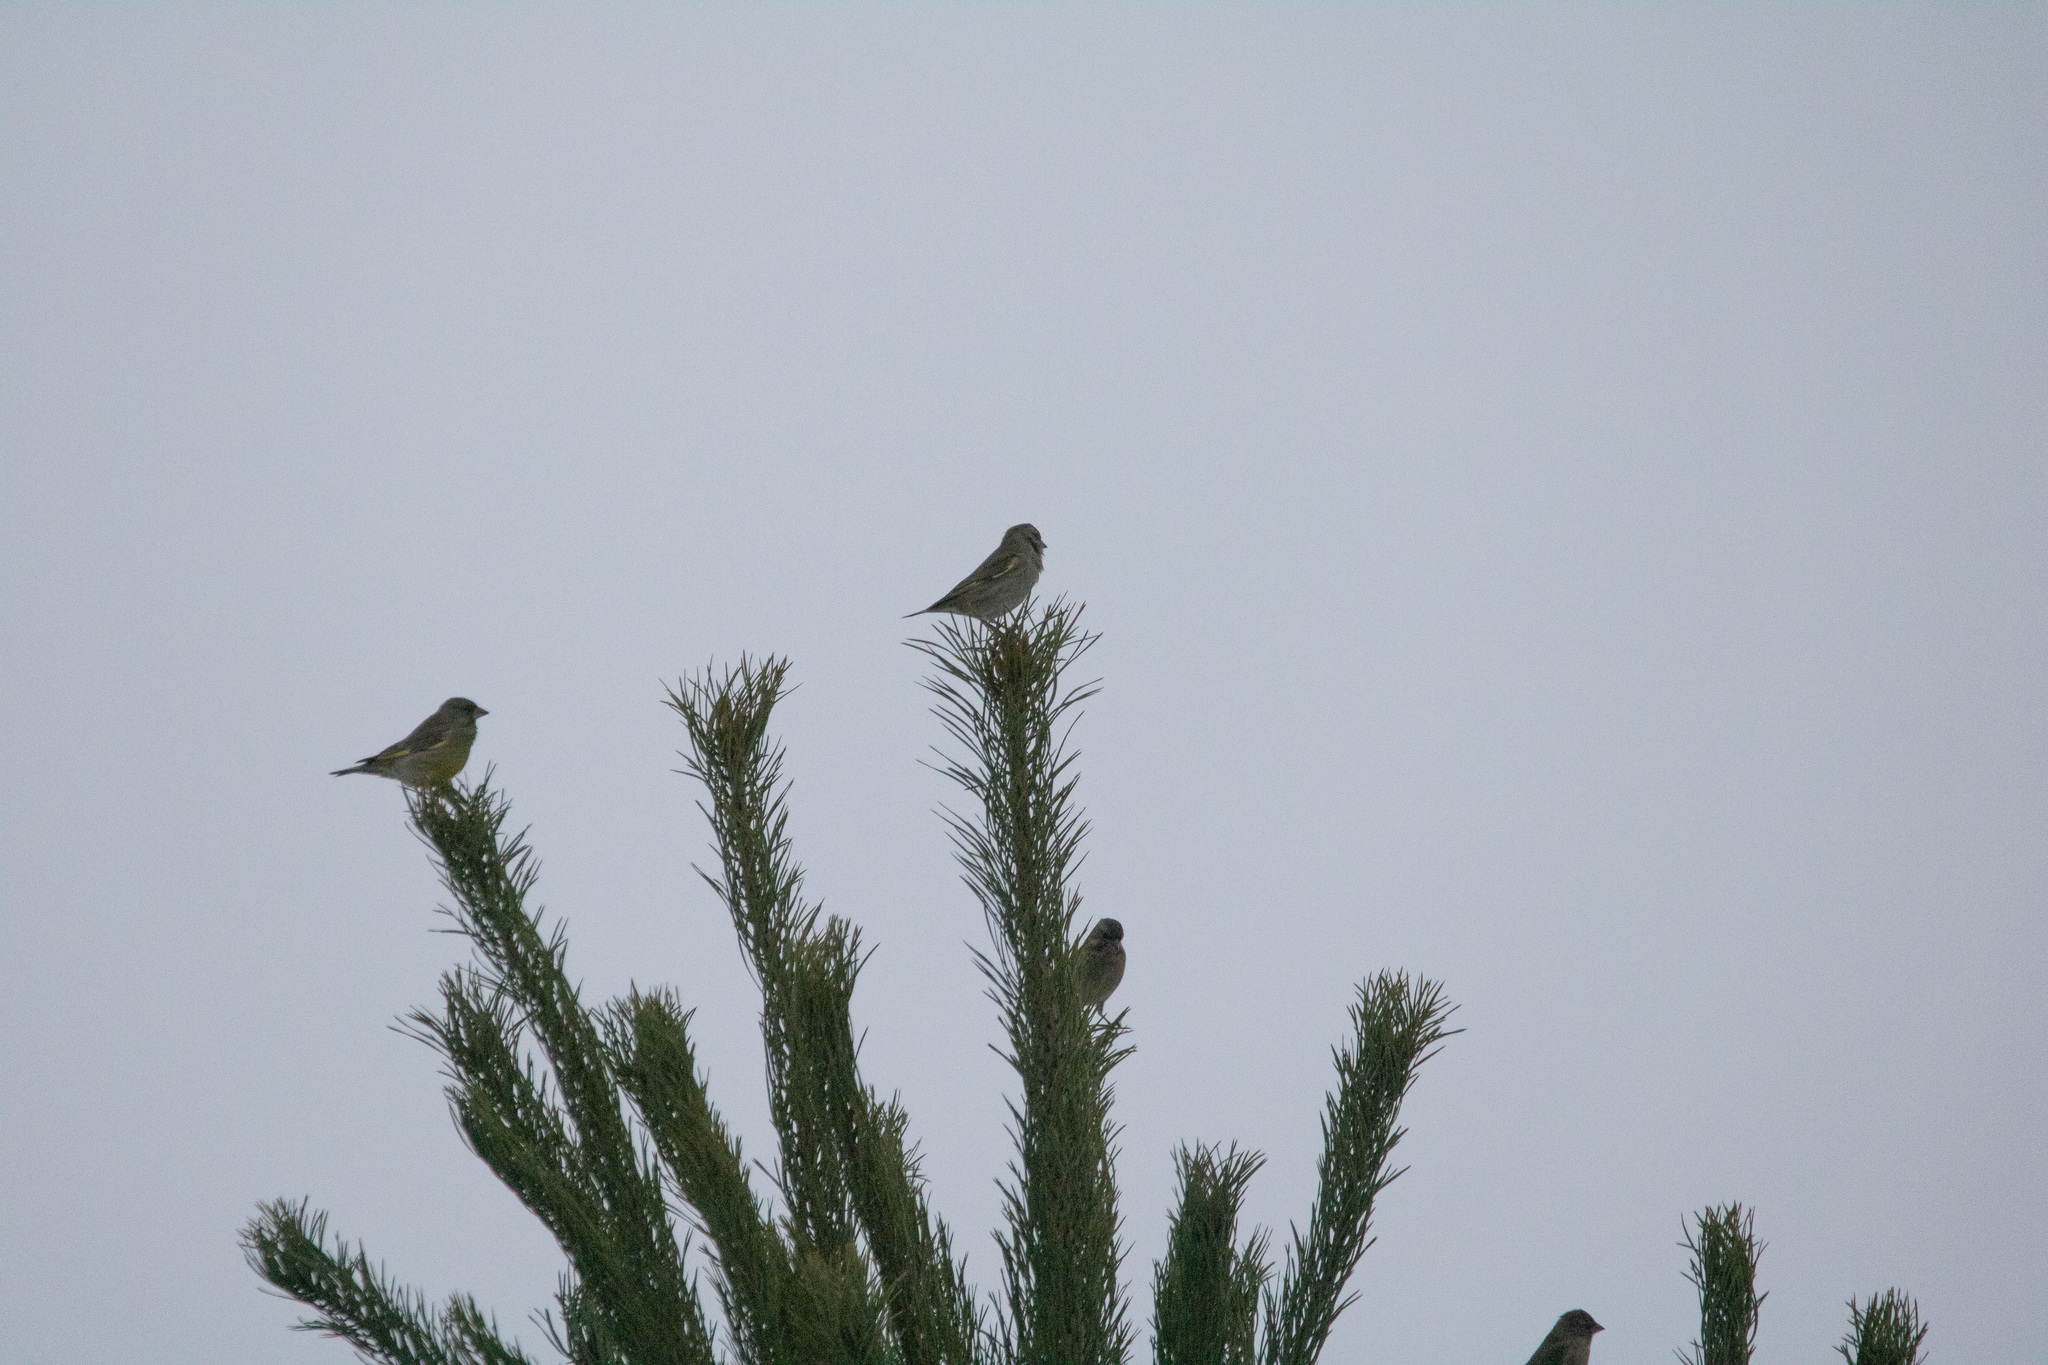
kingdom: Plantae
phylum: Tracheophyta
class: Liliopsida
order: Poales
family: Poaceae
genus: Chloris
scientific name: Chloris chloris
